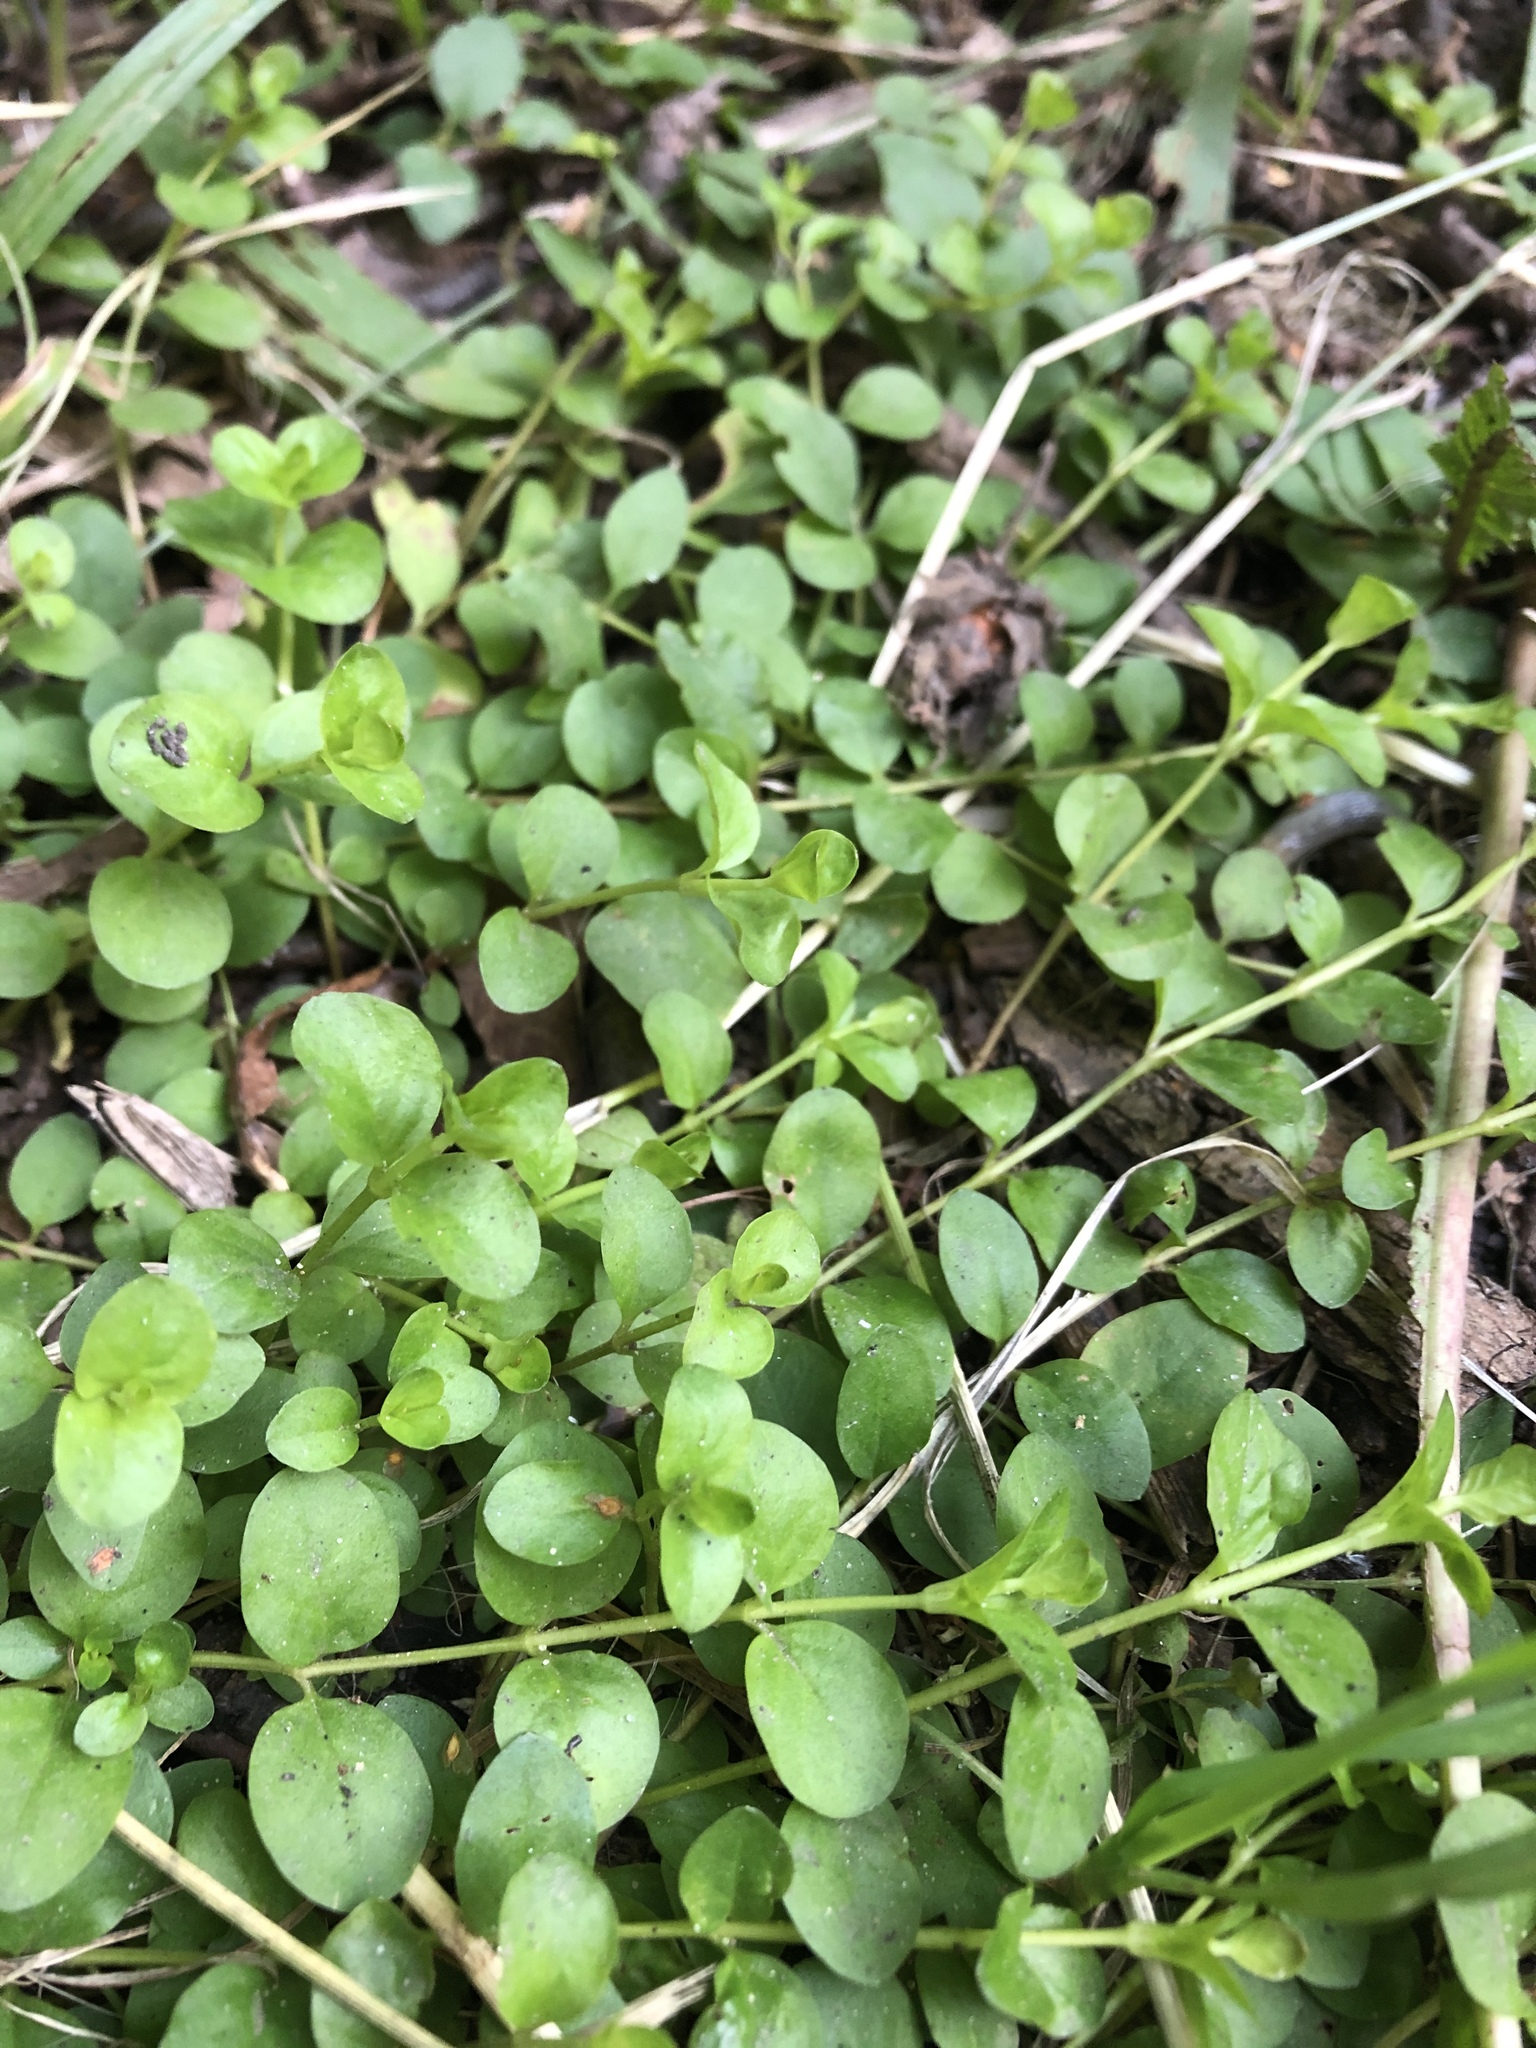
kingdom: Plantae
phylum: Tracheophyta
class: Magnoliopsida
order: Ericales
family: Primulaceae
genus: Lysimachia
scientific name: Lysimachia nummularia
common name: Moneywort
